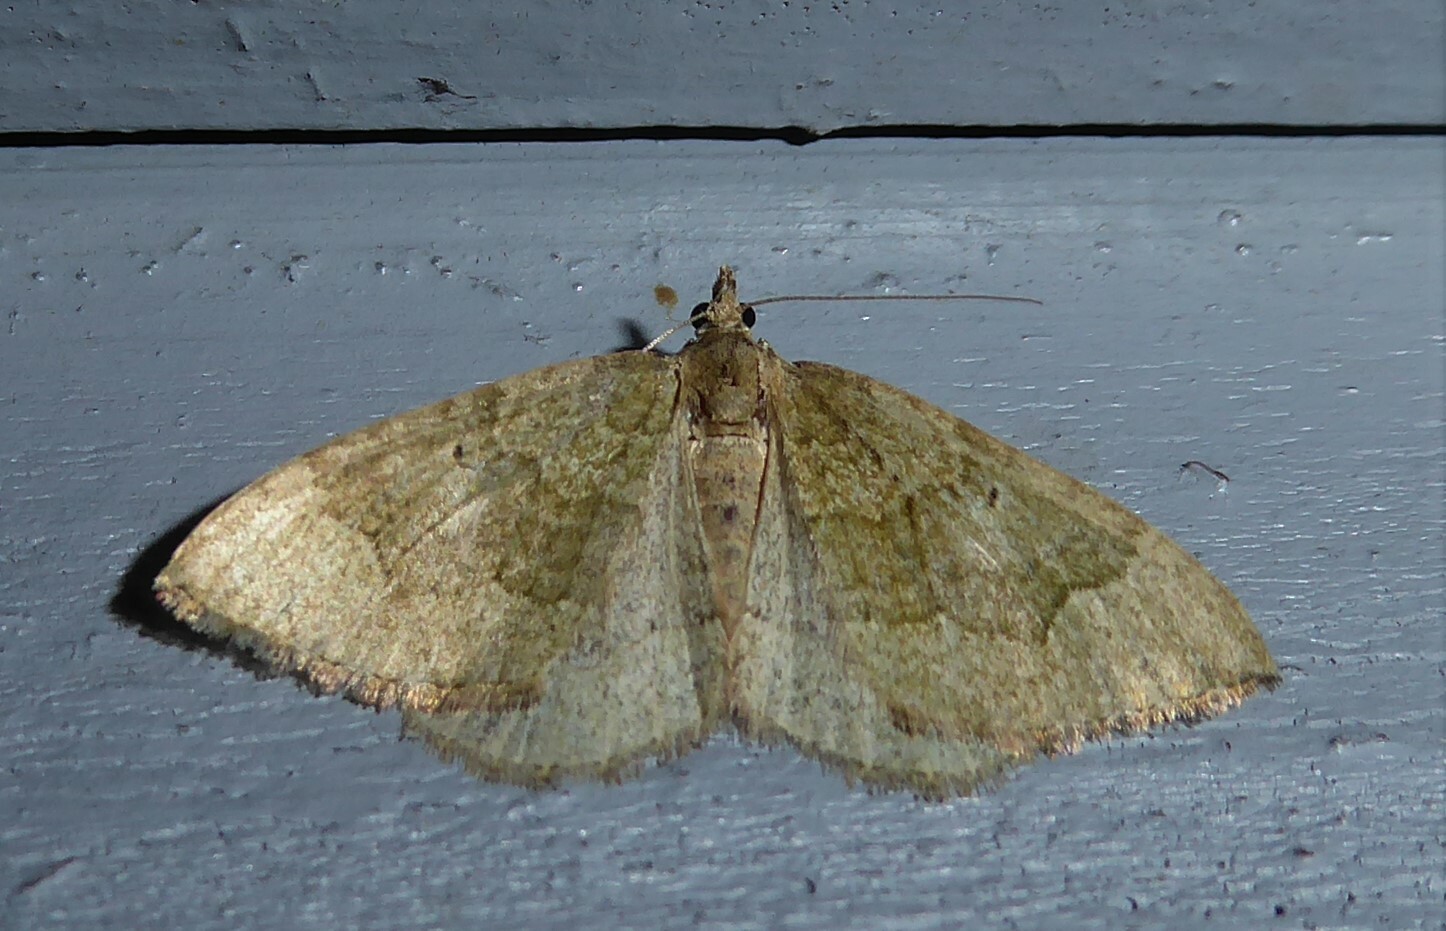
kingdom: Animalia
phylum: Arthropoda
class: Insecta
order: Lepidoptera
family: Geometridae
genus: Epyaxa
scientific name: Epyaxa rosearia
